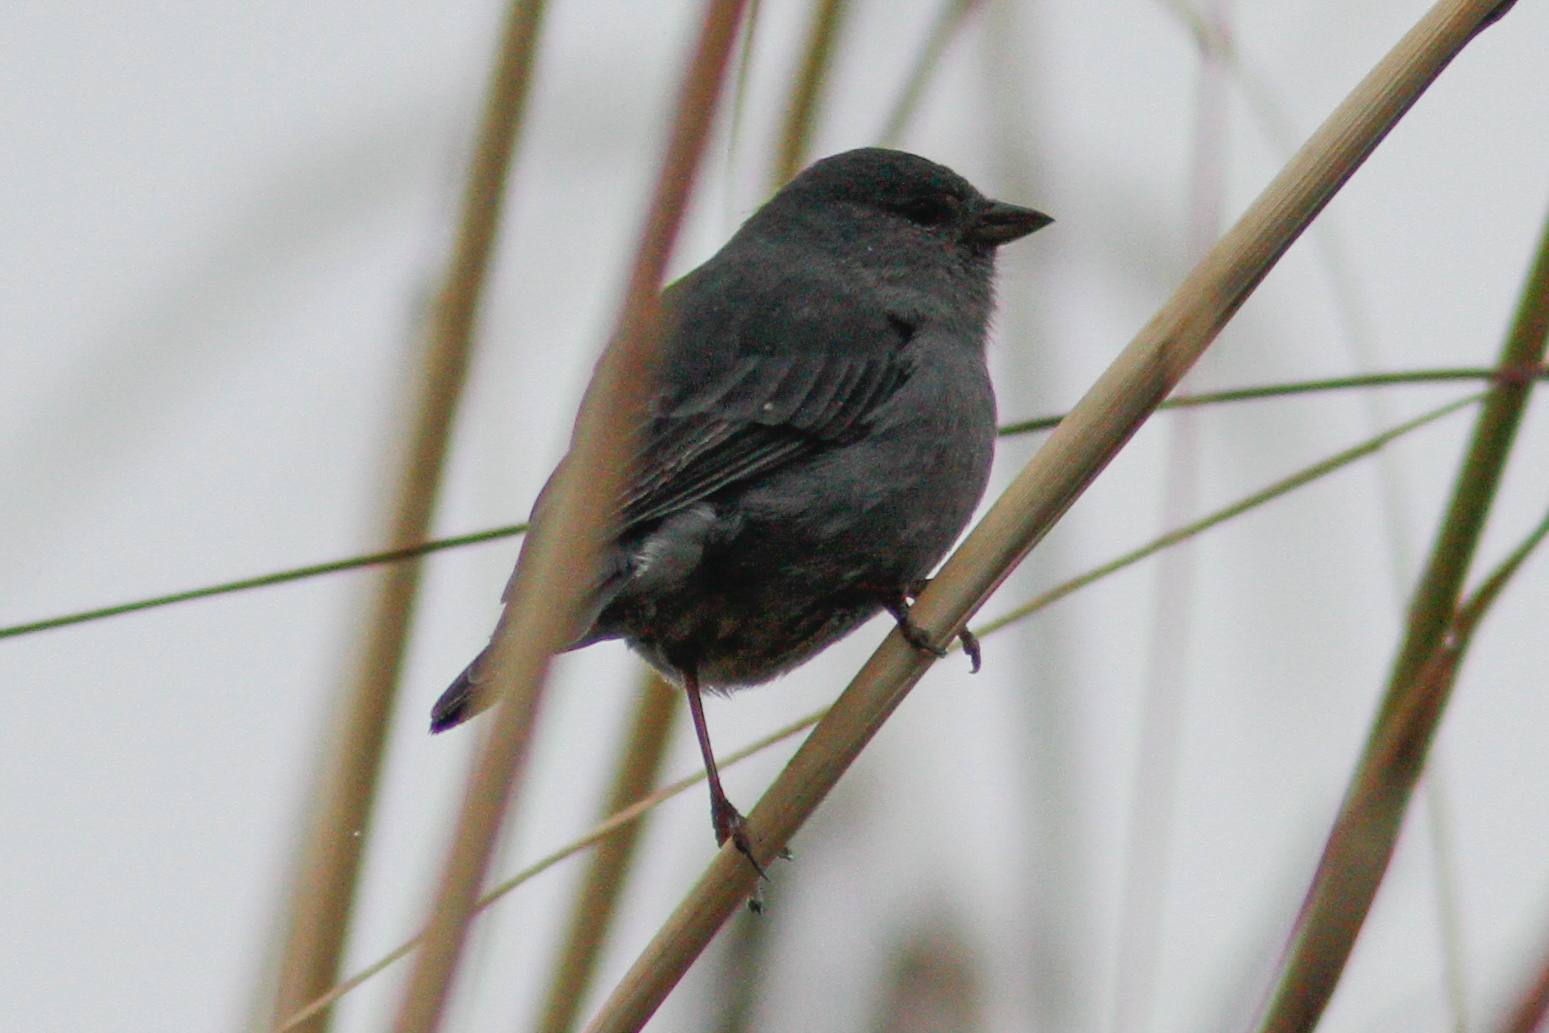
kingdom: Animalia
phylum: Chordata
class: Aves
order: Passeriformes
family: Thraupidae
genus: Geospizopsis
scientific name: Geospizopsis unicolor
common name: Plumbeous sierra-finch
